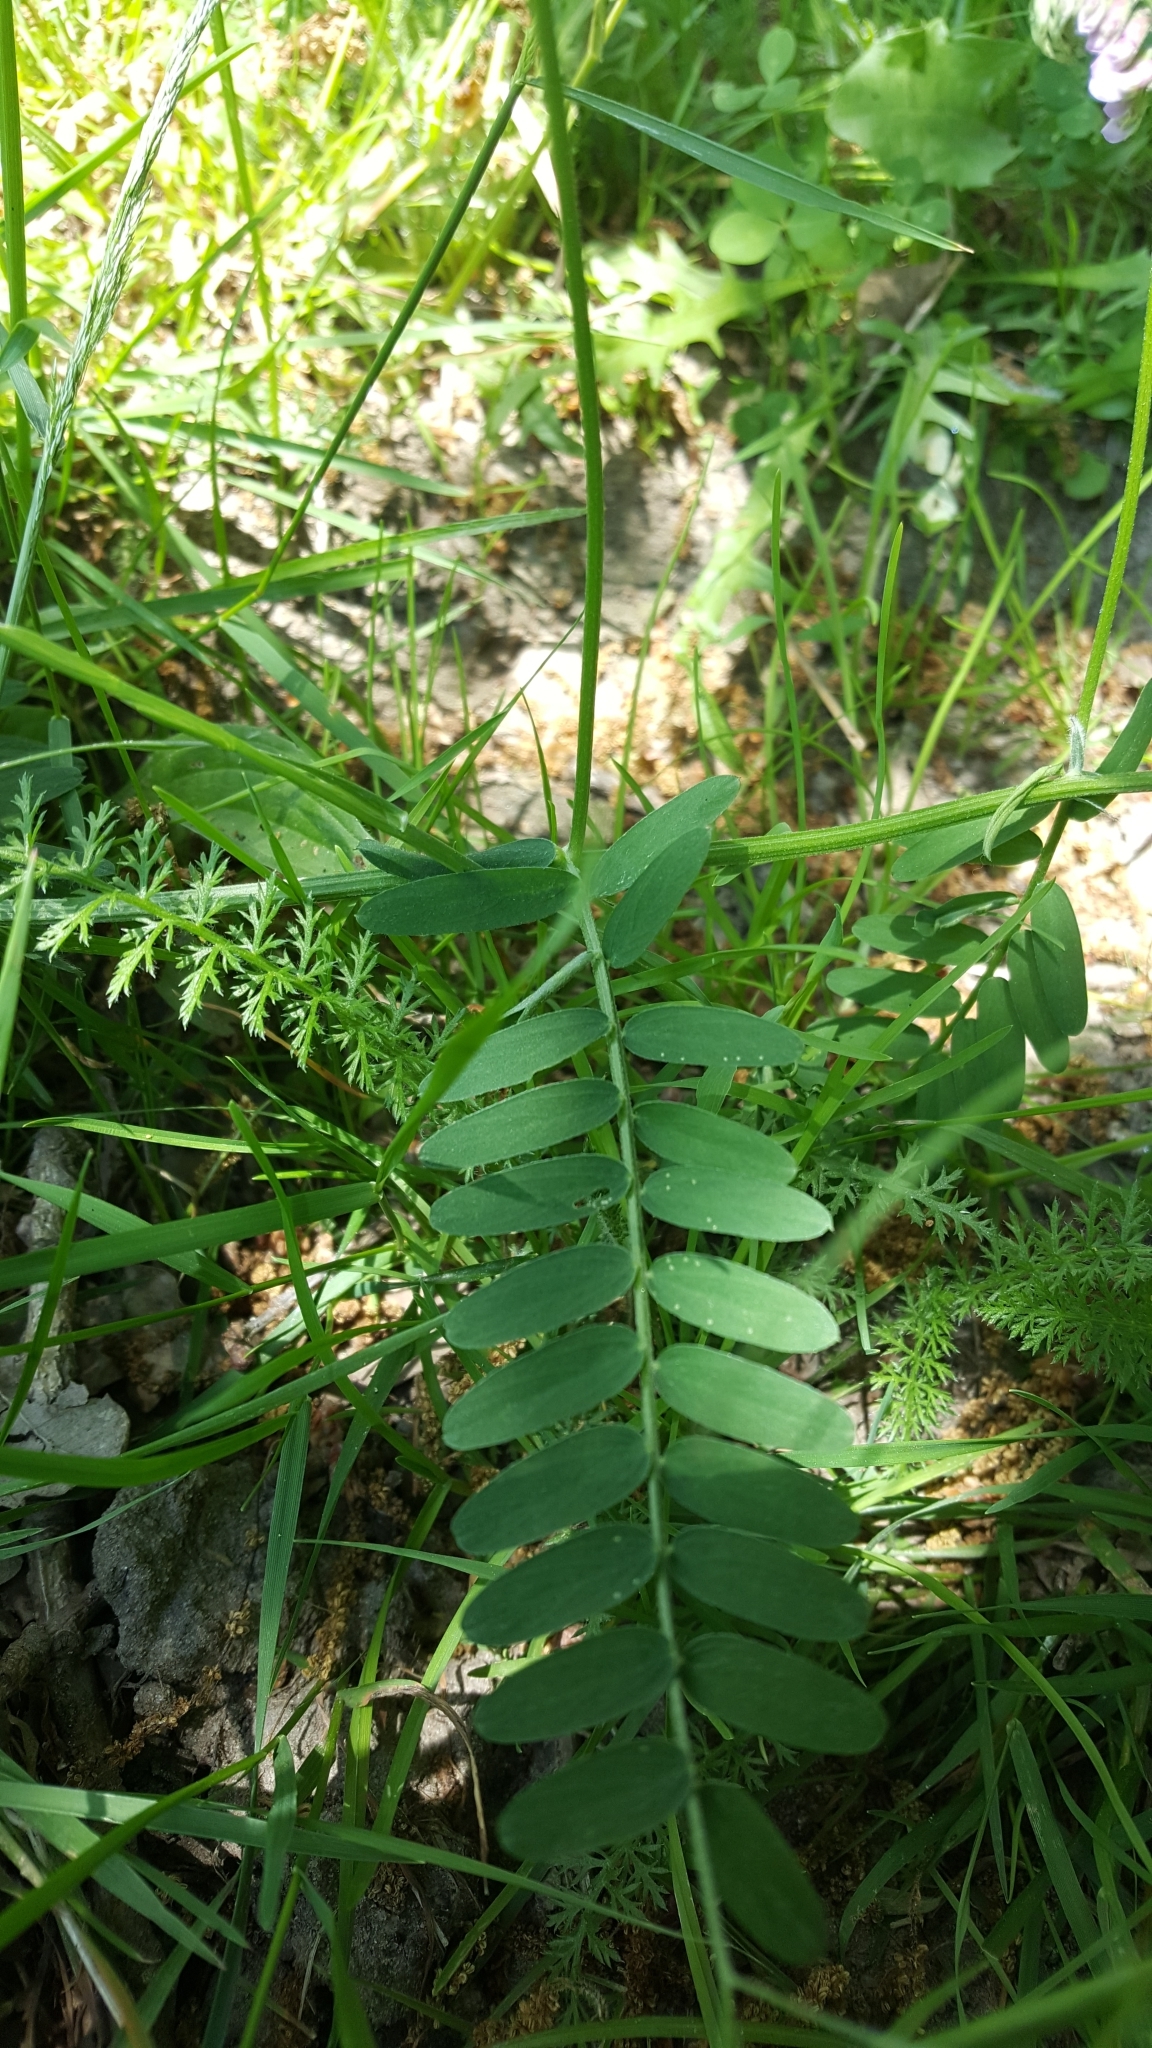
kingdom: Plantae
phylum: Tracheophyta
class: Magnoliopsida
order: Fabales
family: Fabaceae
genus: Vicia
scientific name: Vicia cracca
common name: Bird vetch
